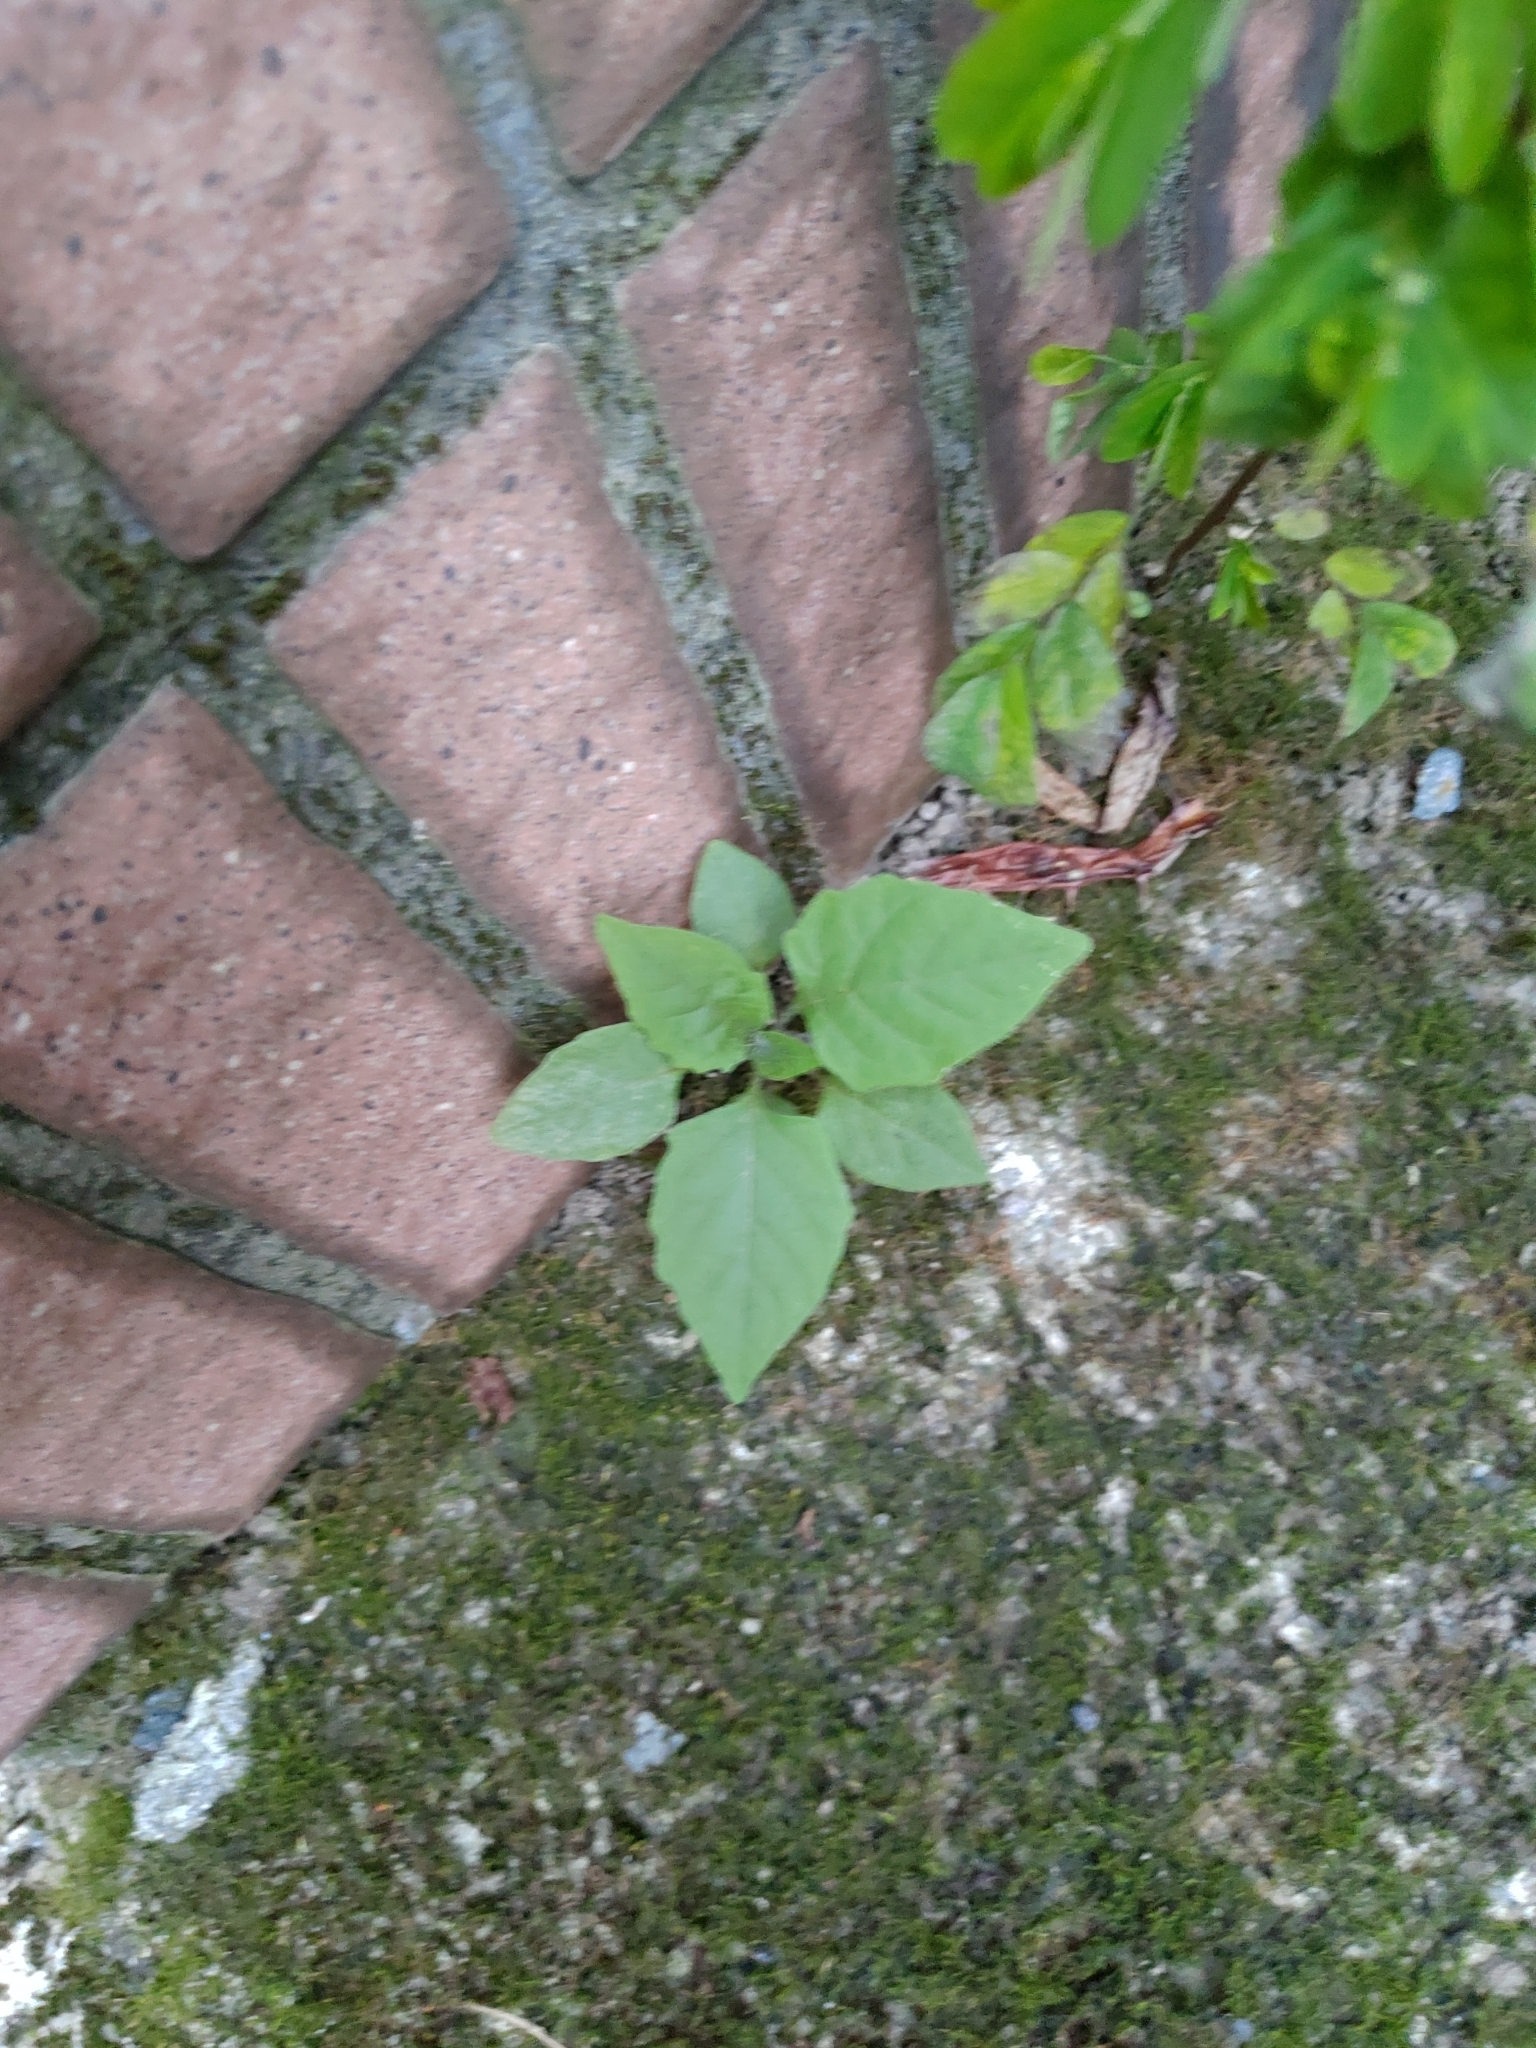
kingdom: Plantae
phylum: Tracheophyta
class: Magnoliopsida
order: Solanales
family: Solanaceae
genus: Solanum
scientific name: Solanum
